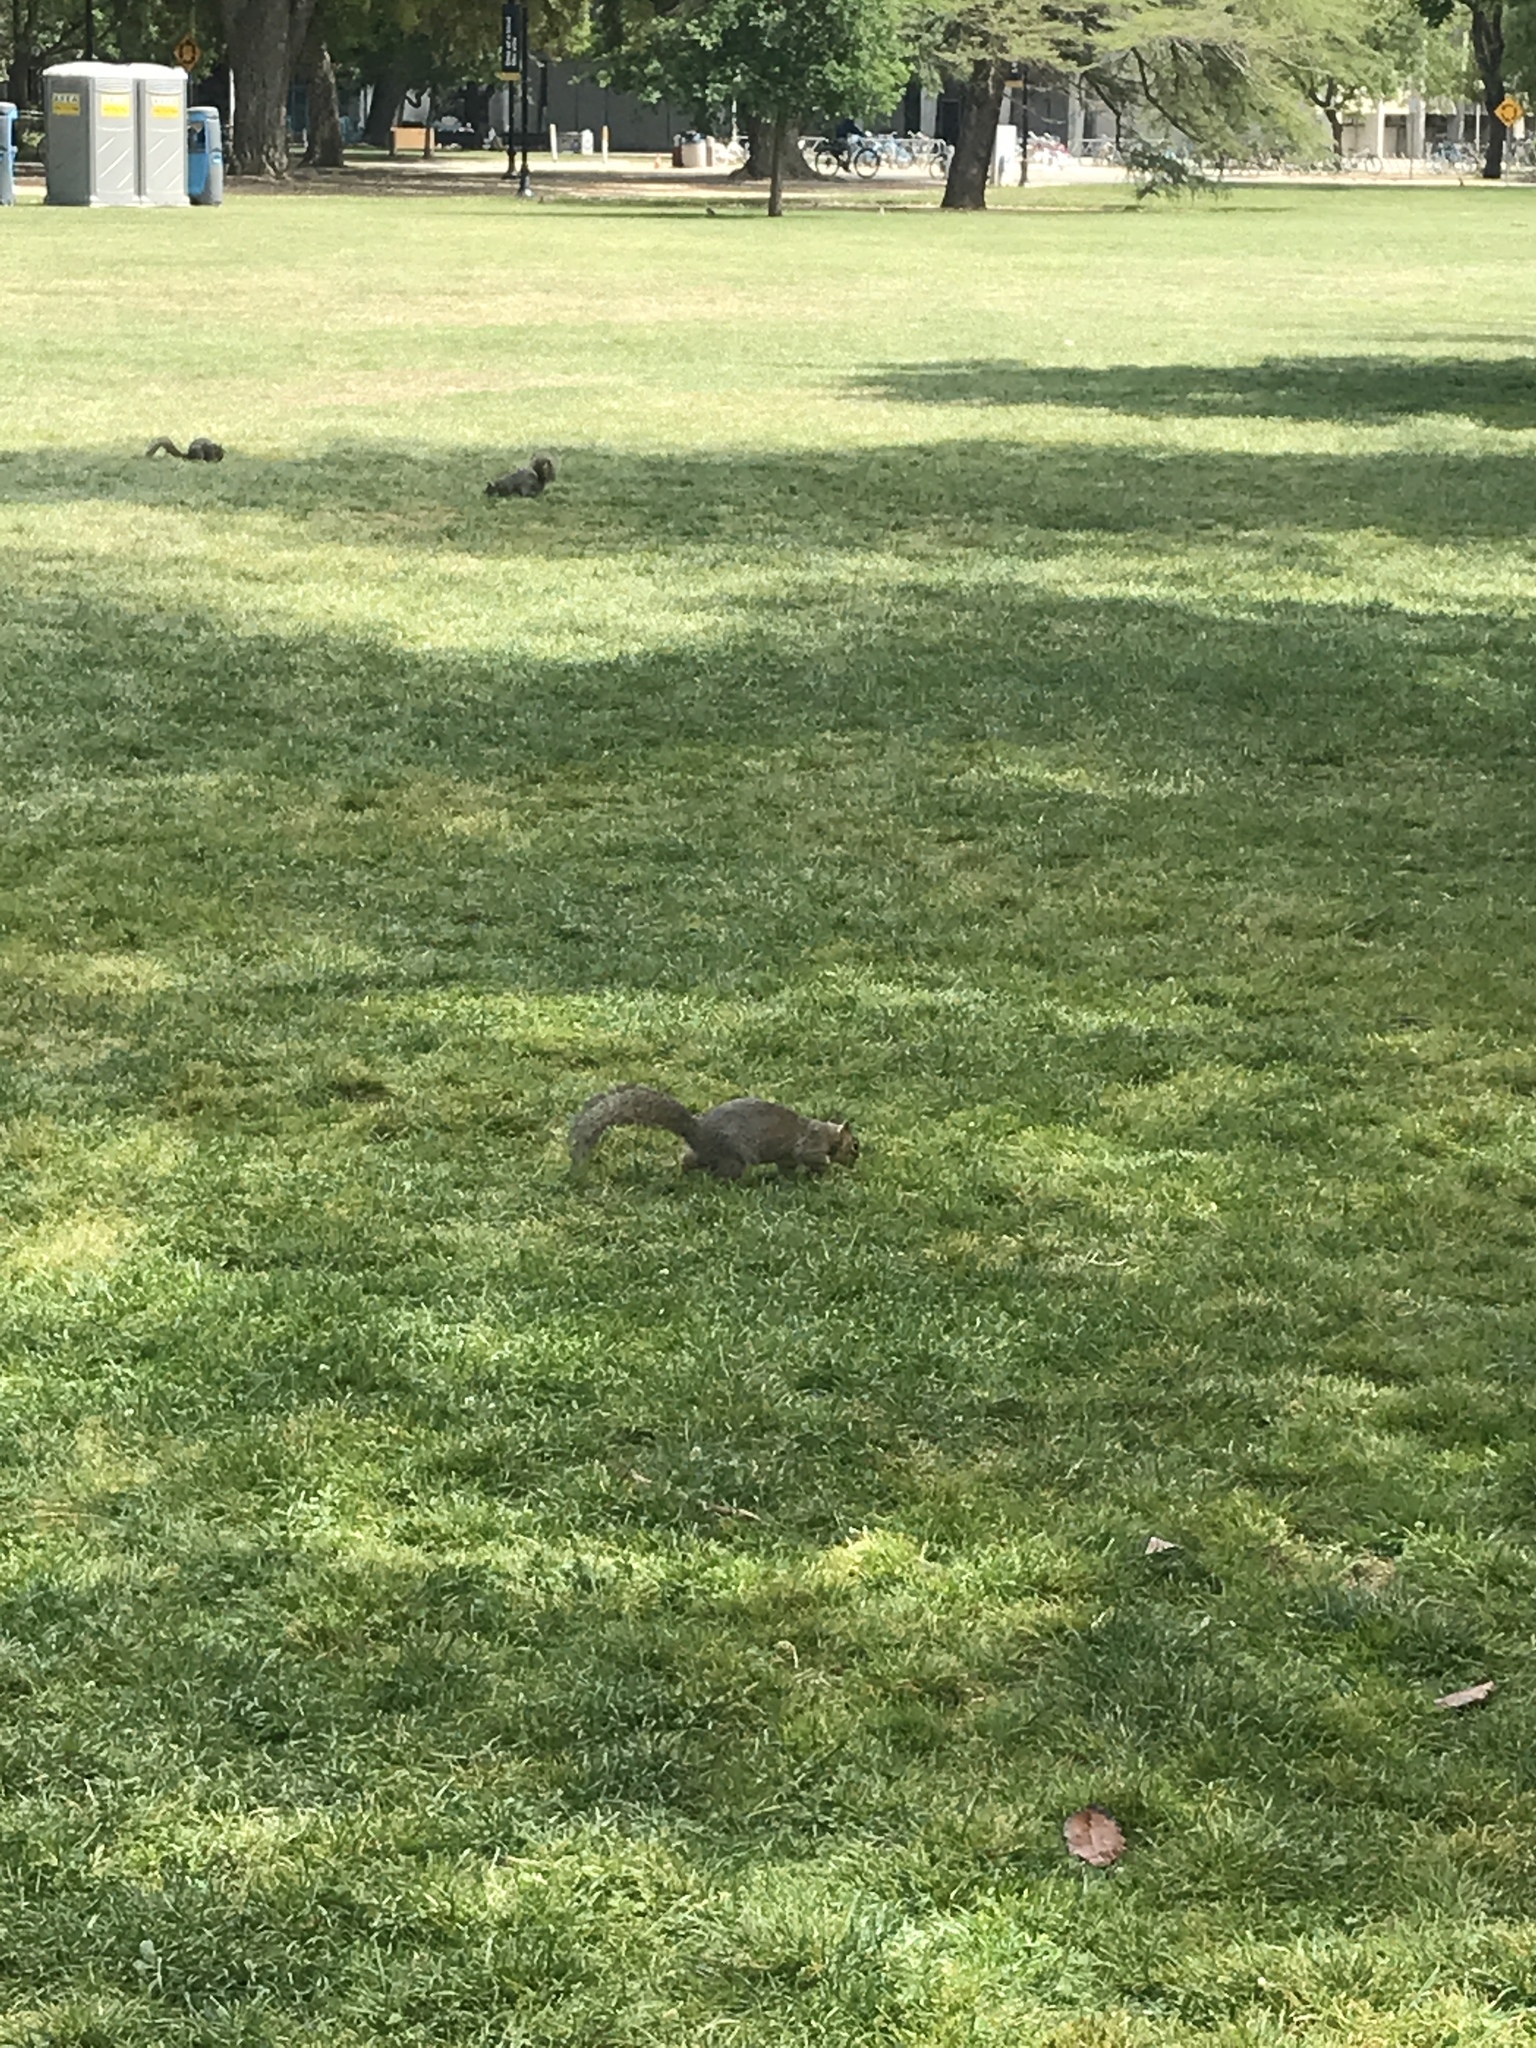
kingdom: Animalia
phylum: Chordata
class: Mammalia
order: Rodentia
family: Sciuridae
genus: Sciurus
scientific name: Sciurus niger
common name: Fox squirrel
